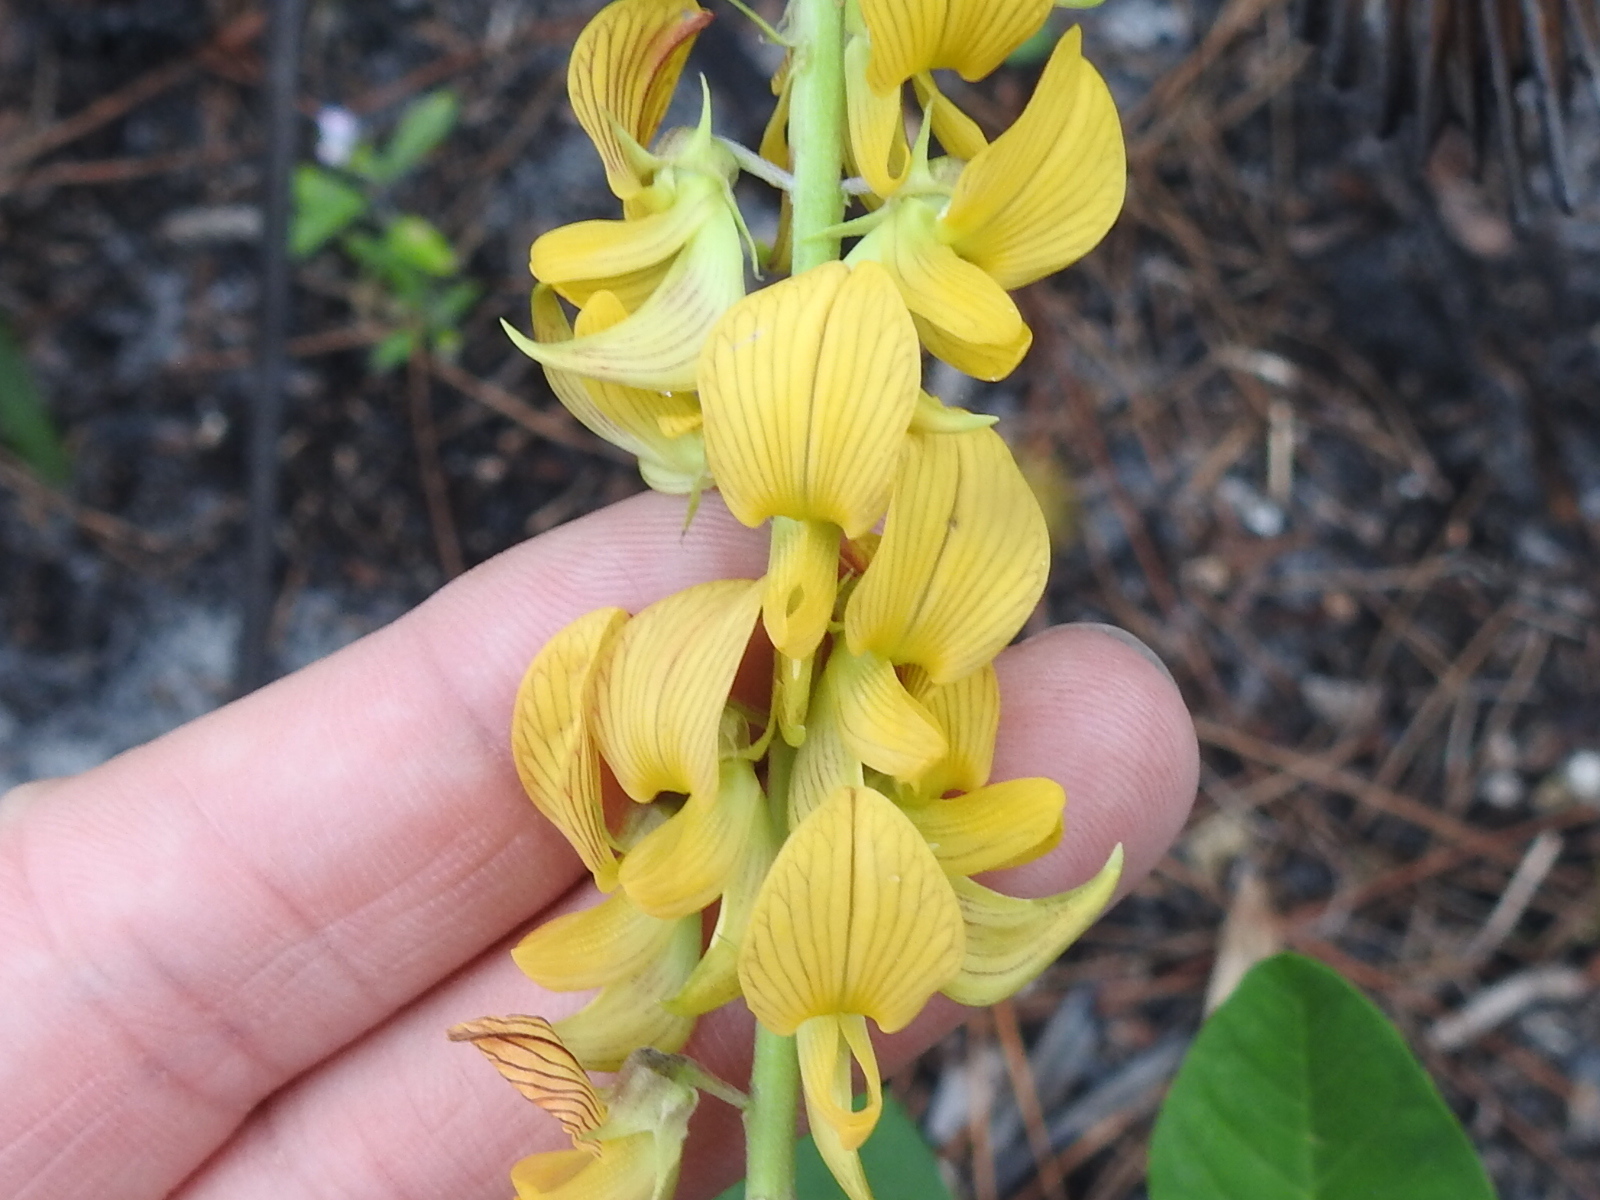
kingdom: Plantae
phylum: Tracheophyta
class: Magnoliopsida
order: Fabales
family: Fabaceae
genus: Crotalaria
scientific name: Crotalaria pallida
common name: Smooth rattlebox
